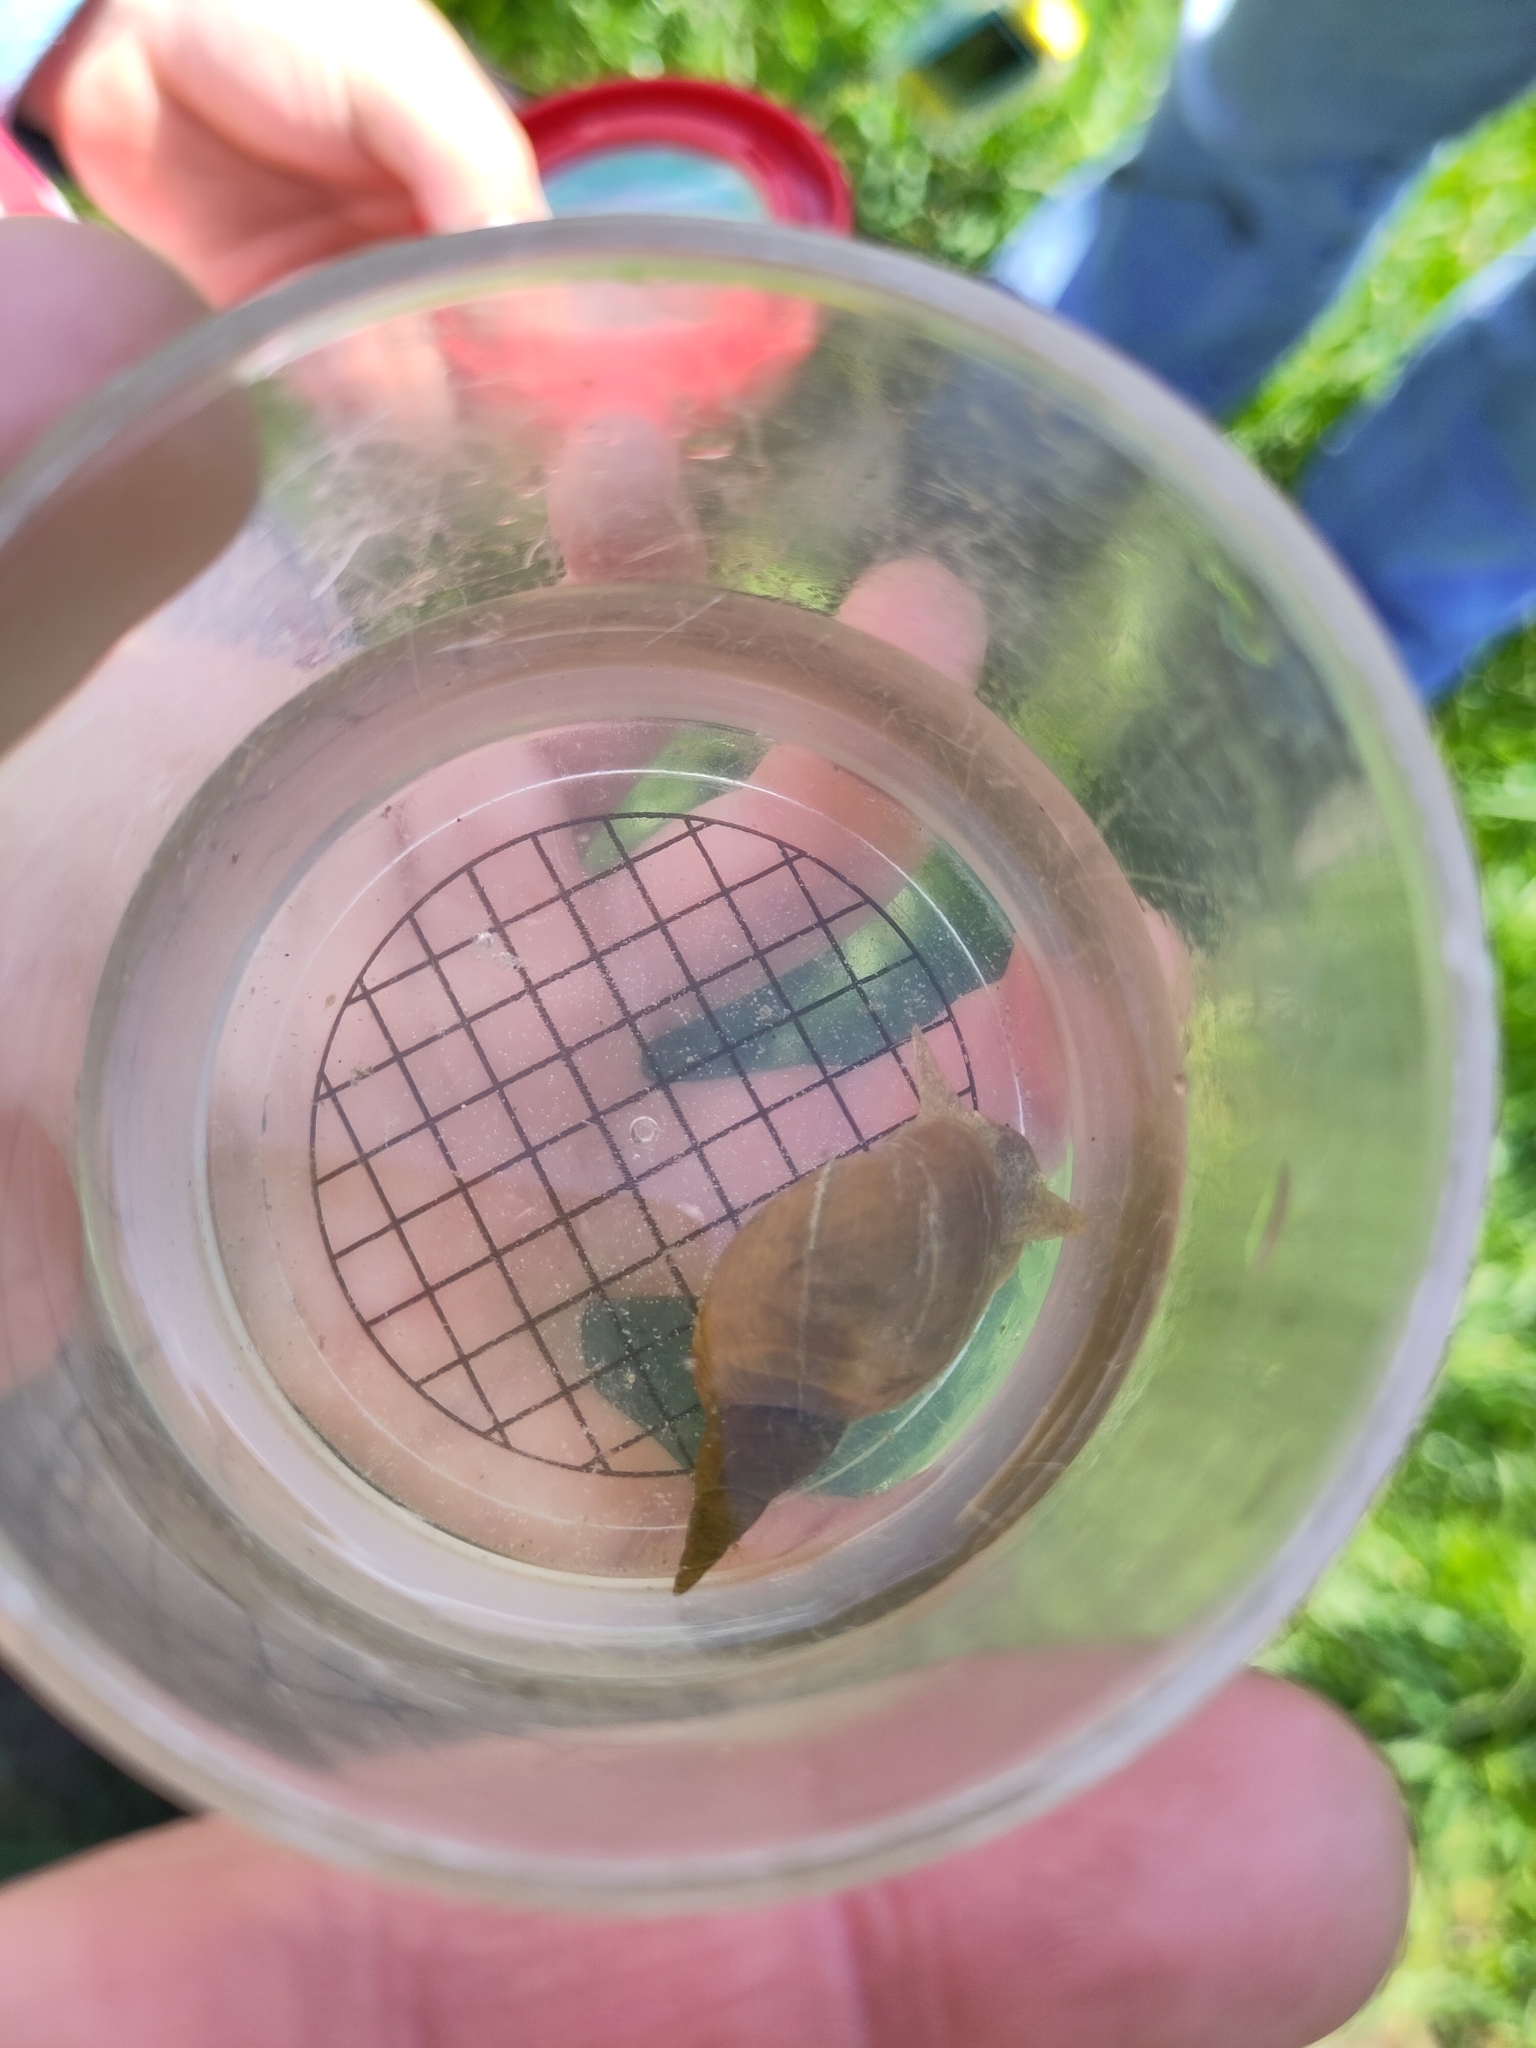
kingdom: Animalia
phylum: Mollusca
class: Gastropoda
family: Lymnaeidae
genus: Lymnaea
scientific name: Lymnaea stagnalis
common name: Great pond snail
